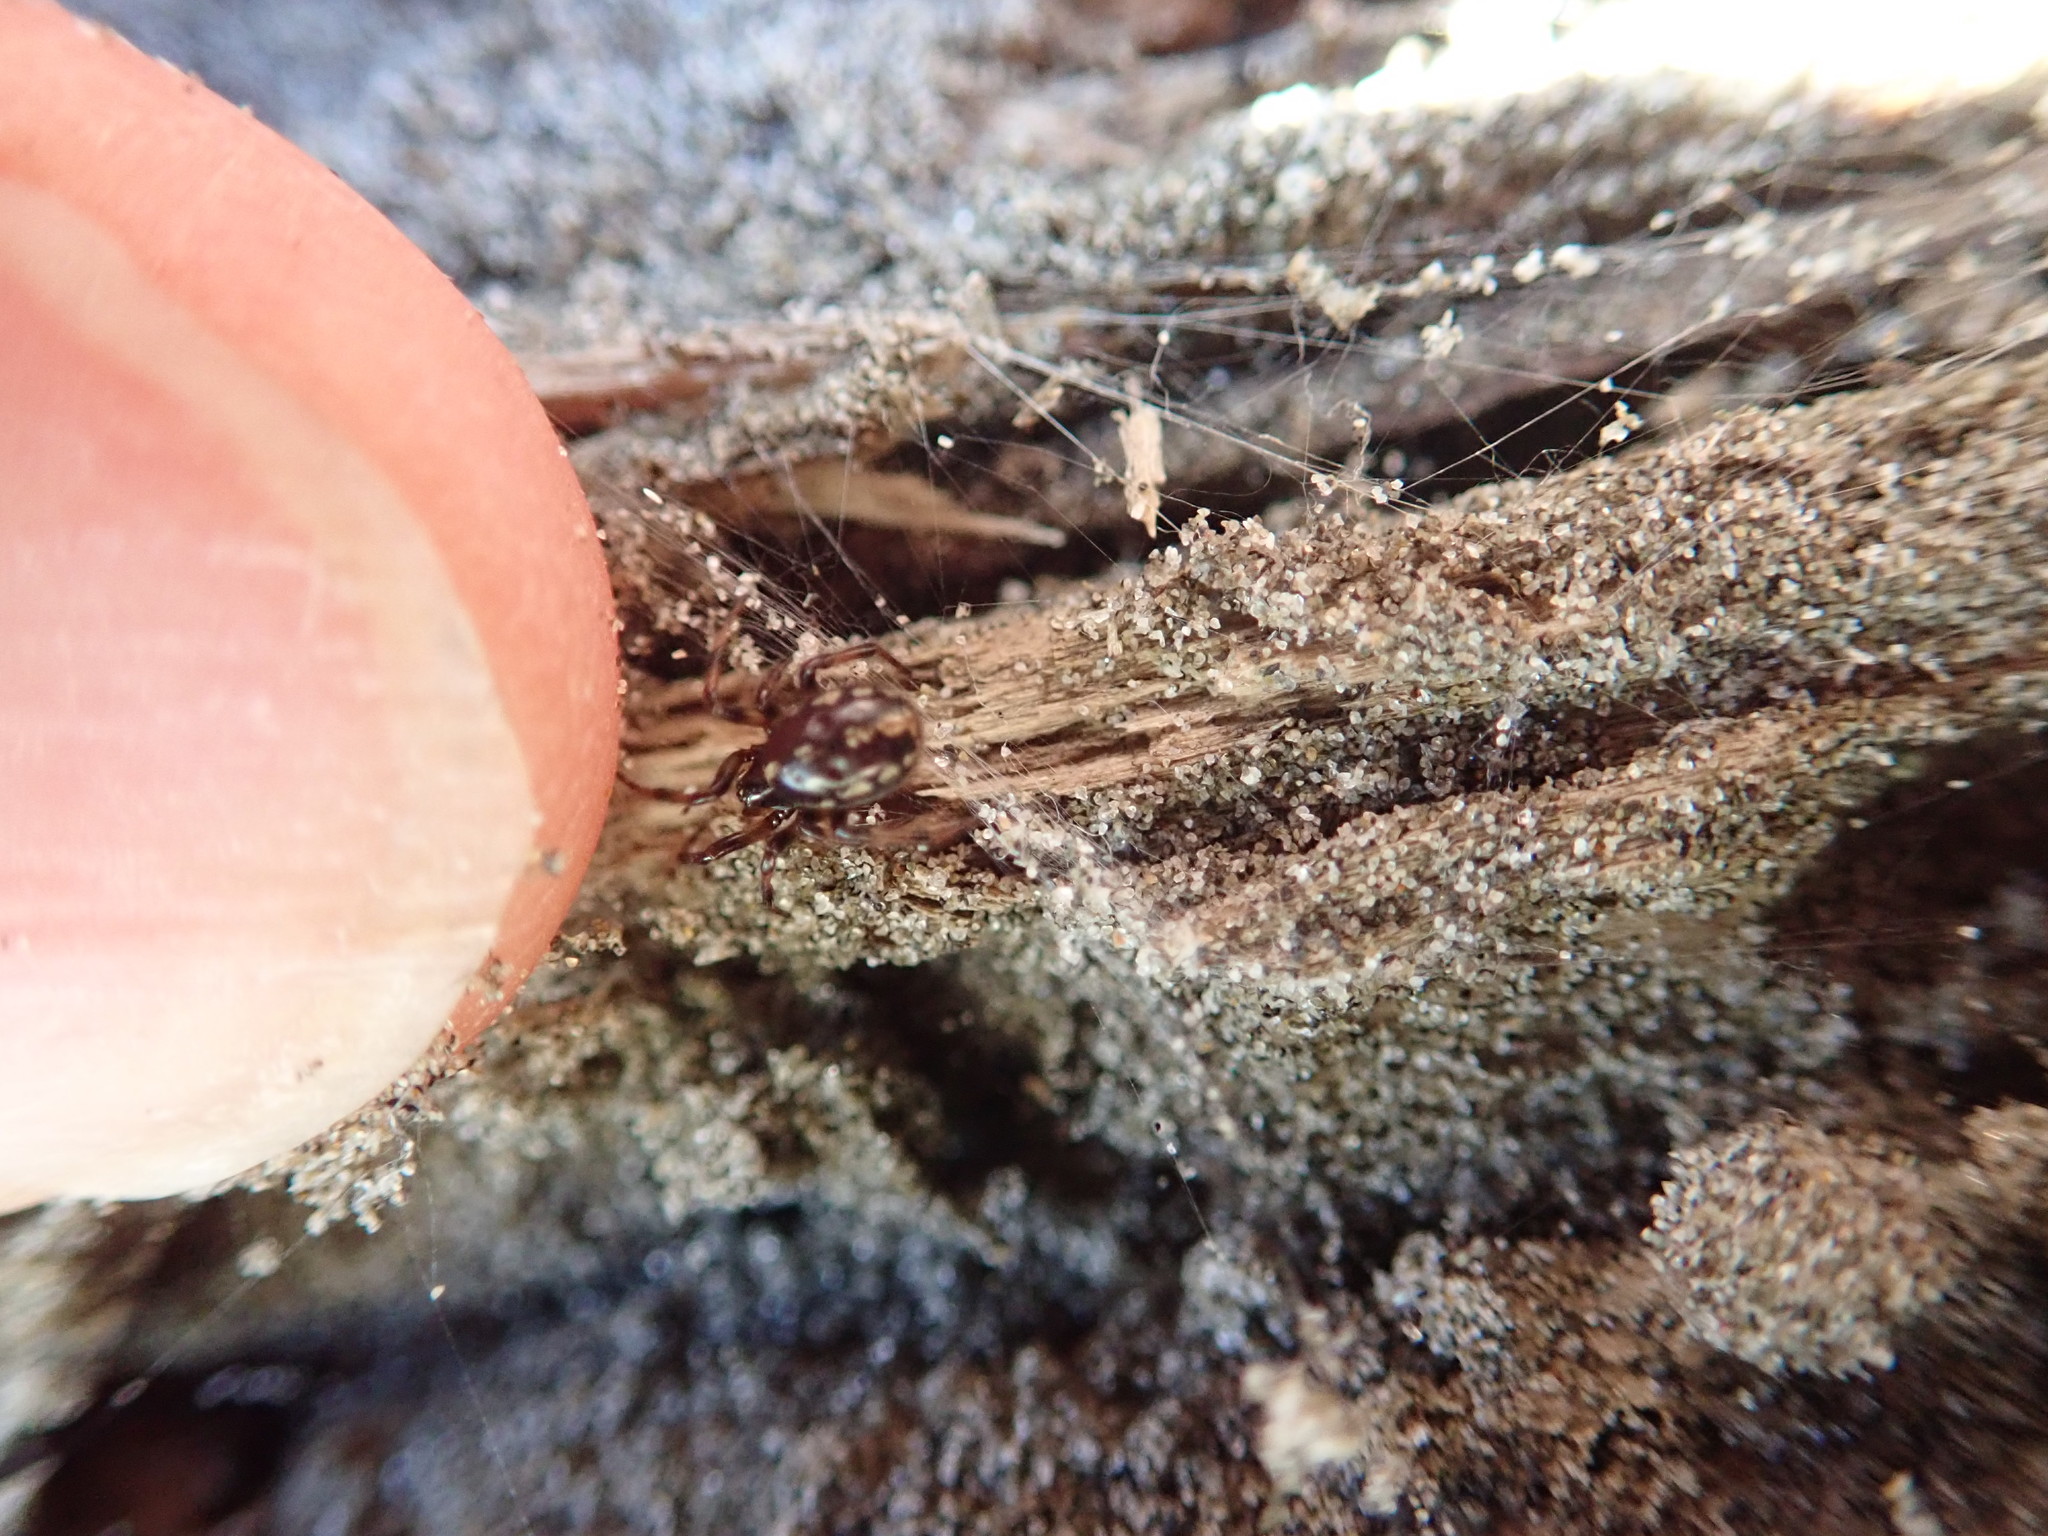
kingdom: Animalia
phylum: Arthropoda
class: Arachnida
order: Araneae
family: Theridiidae
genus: Steatoda
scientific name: Steatoda lepida
